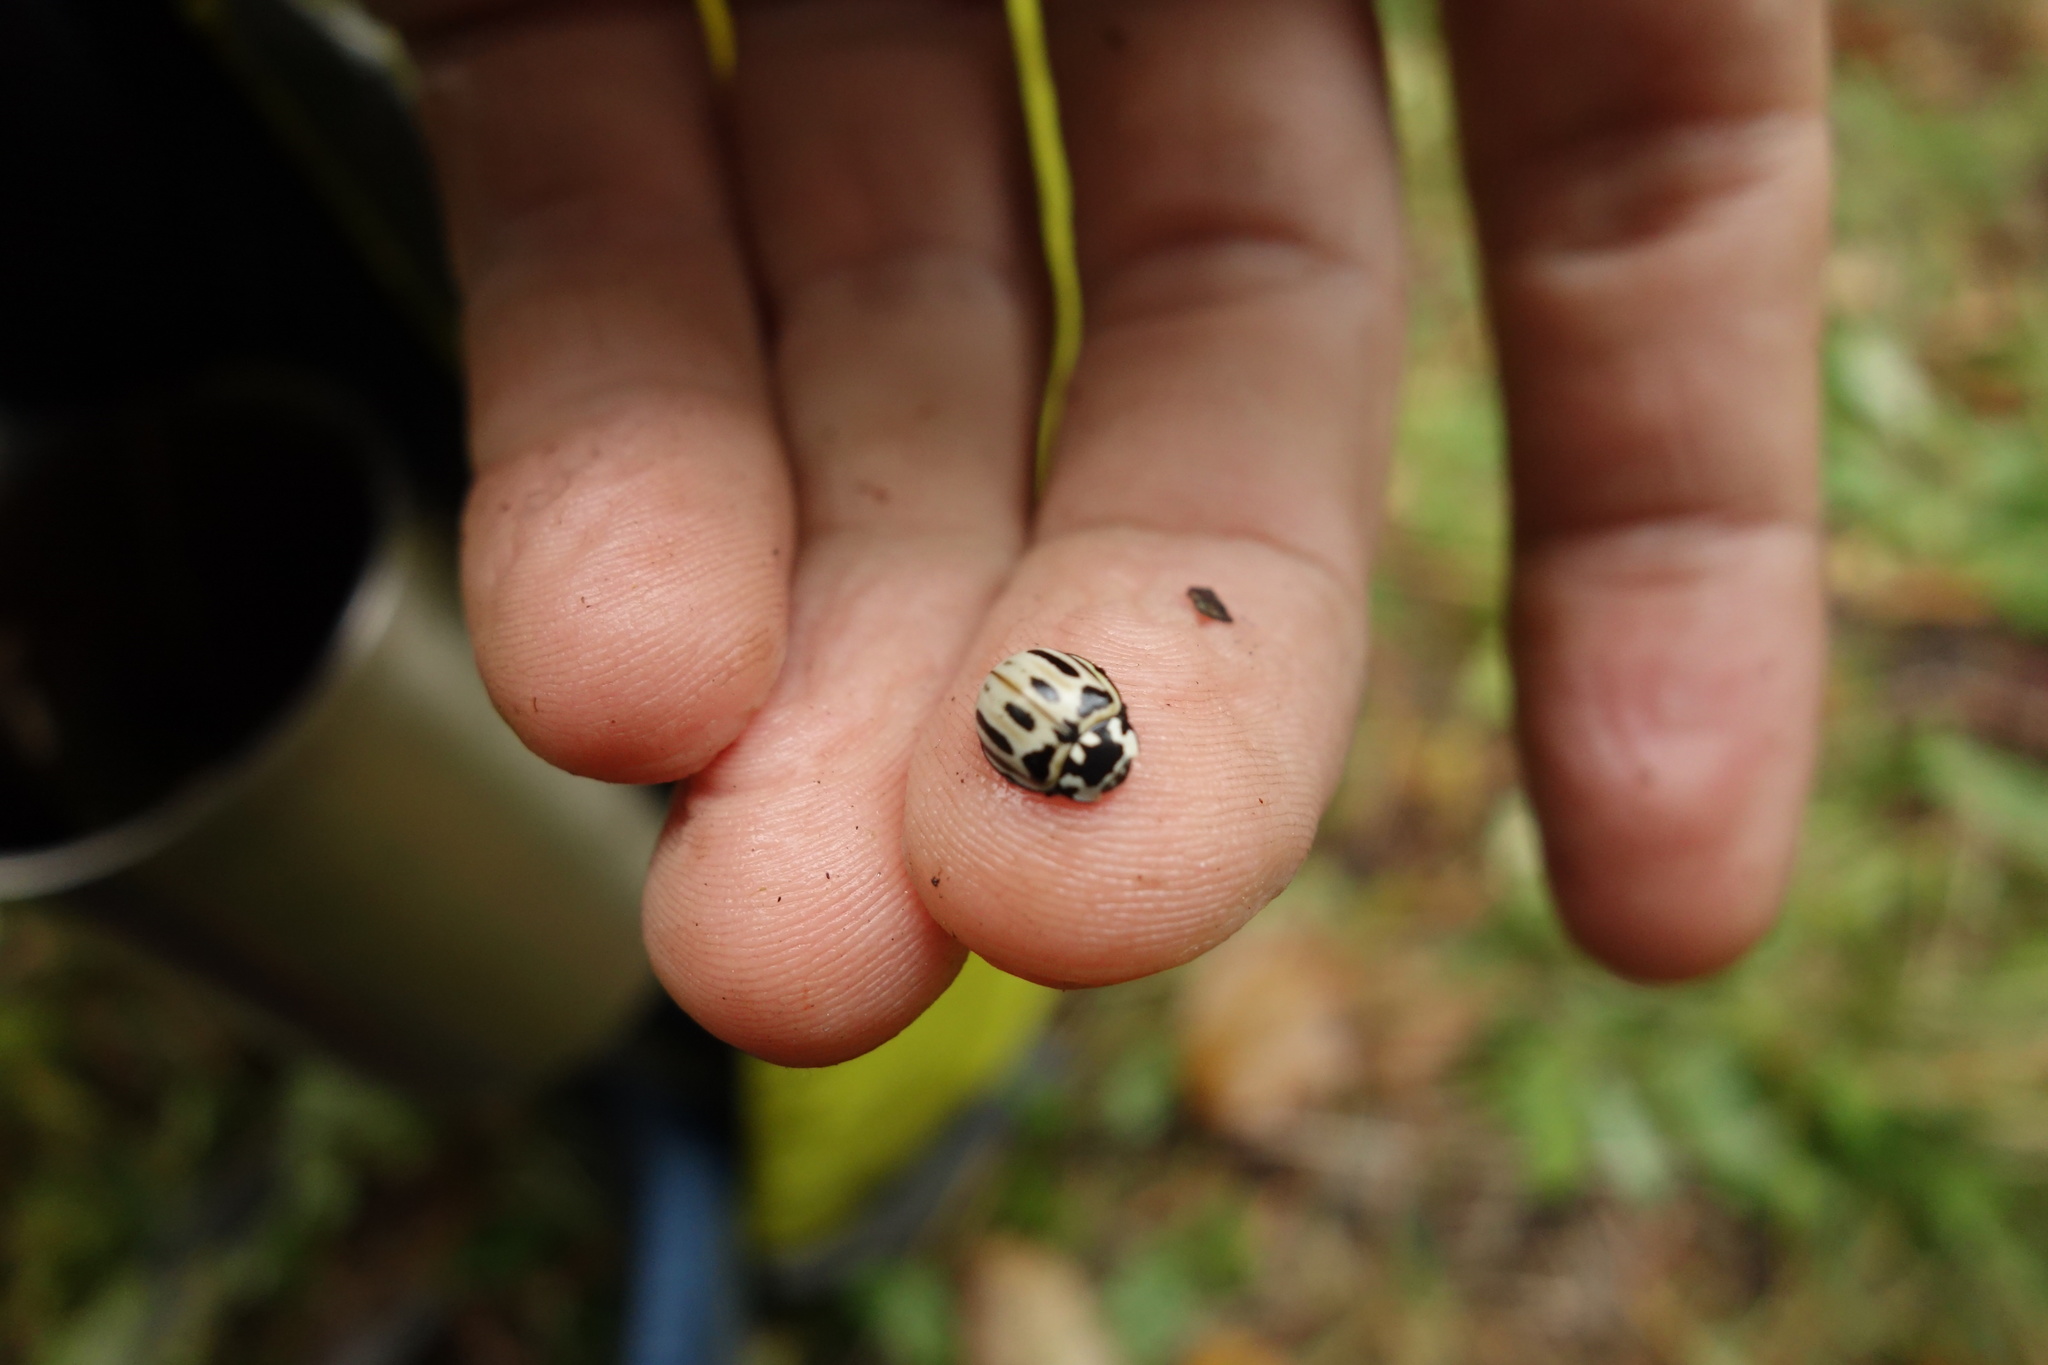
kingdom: Animalia
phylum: Arthropoda
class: Insecta
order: Coleoptera
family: Coccinellidae
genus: Anatis
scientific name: Anatis ocellata
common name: Eyed ladybird
